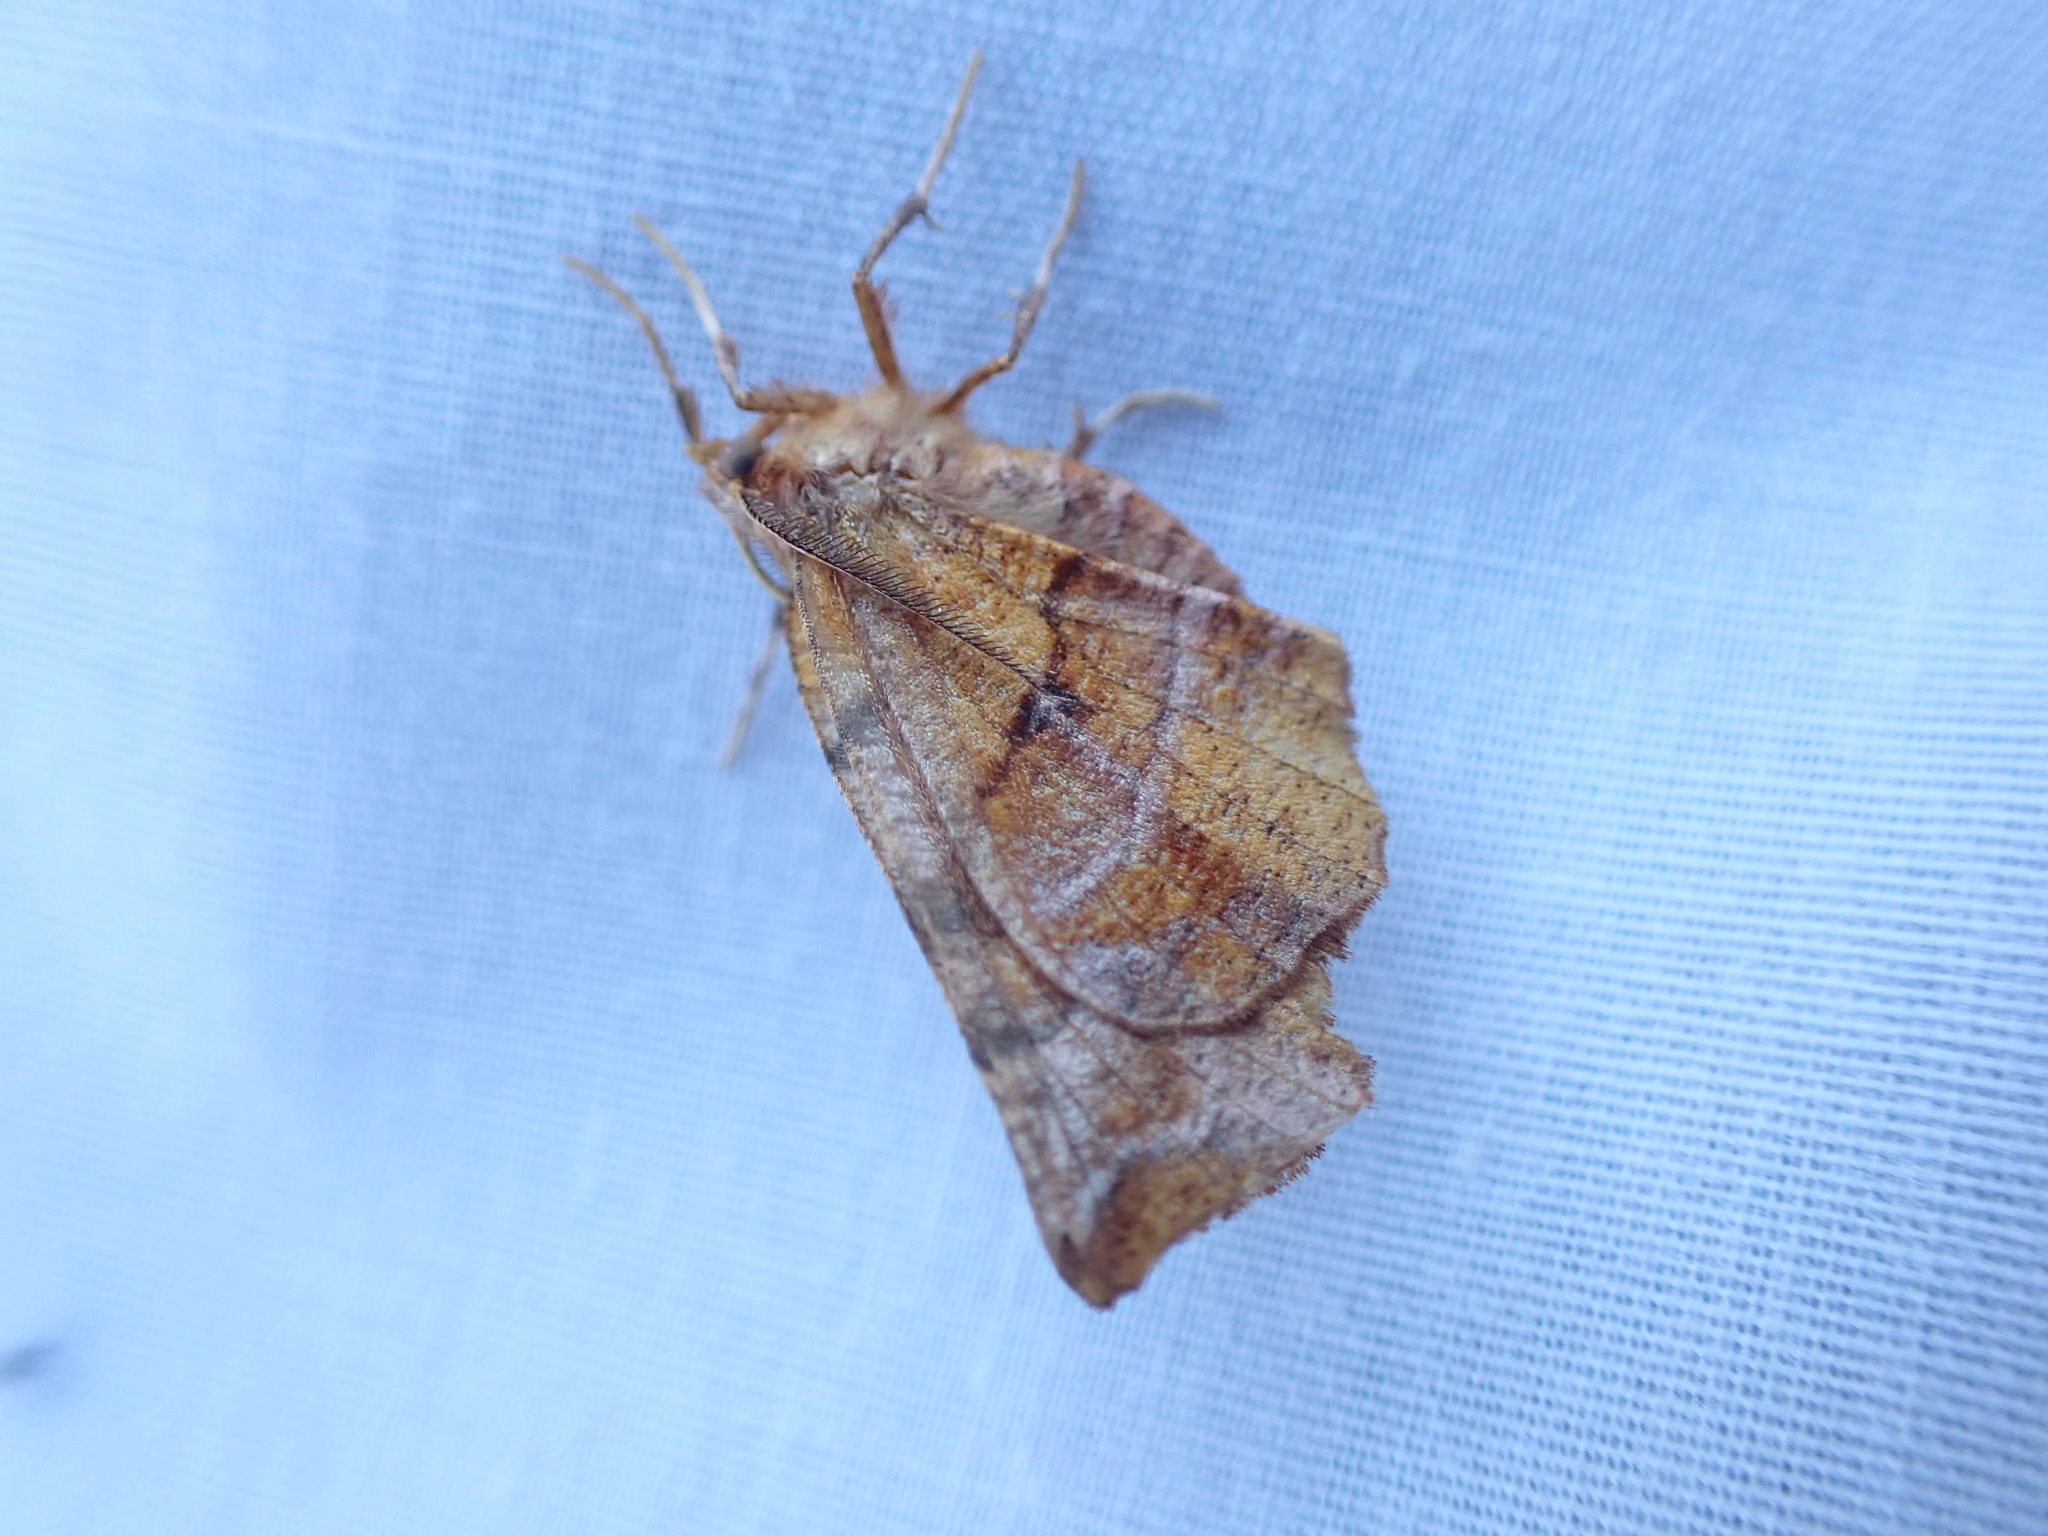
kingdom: Animalia
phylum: Arthropoda
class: Insecta
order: Lepidoptera
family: Geometridae
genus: Selenia
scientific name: Selenia alciphearia
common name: Brown-tipped thorn
